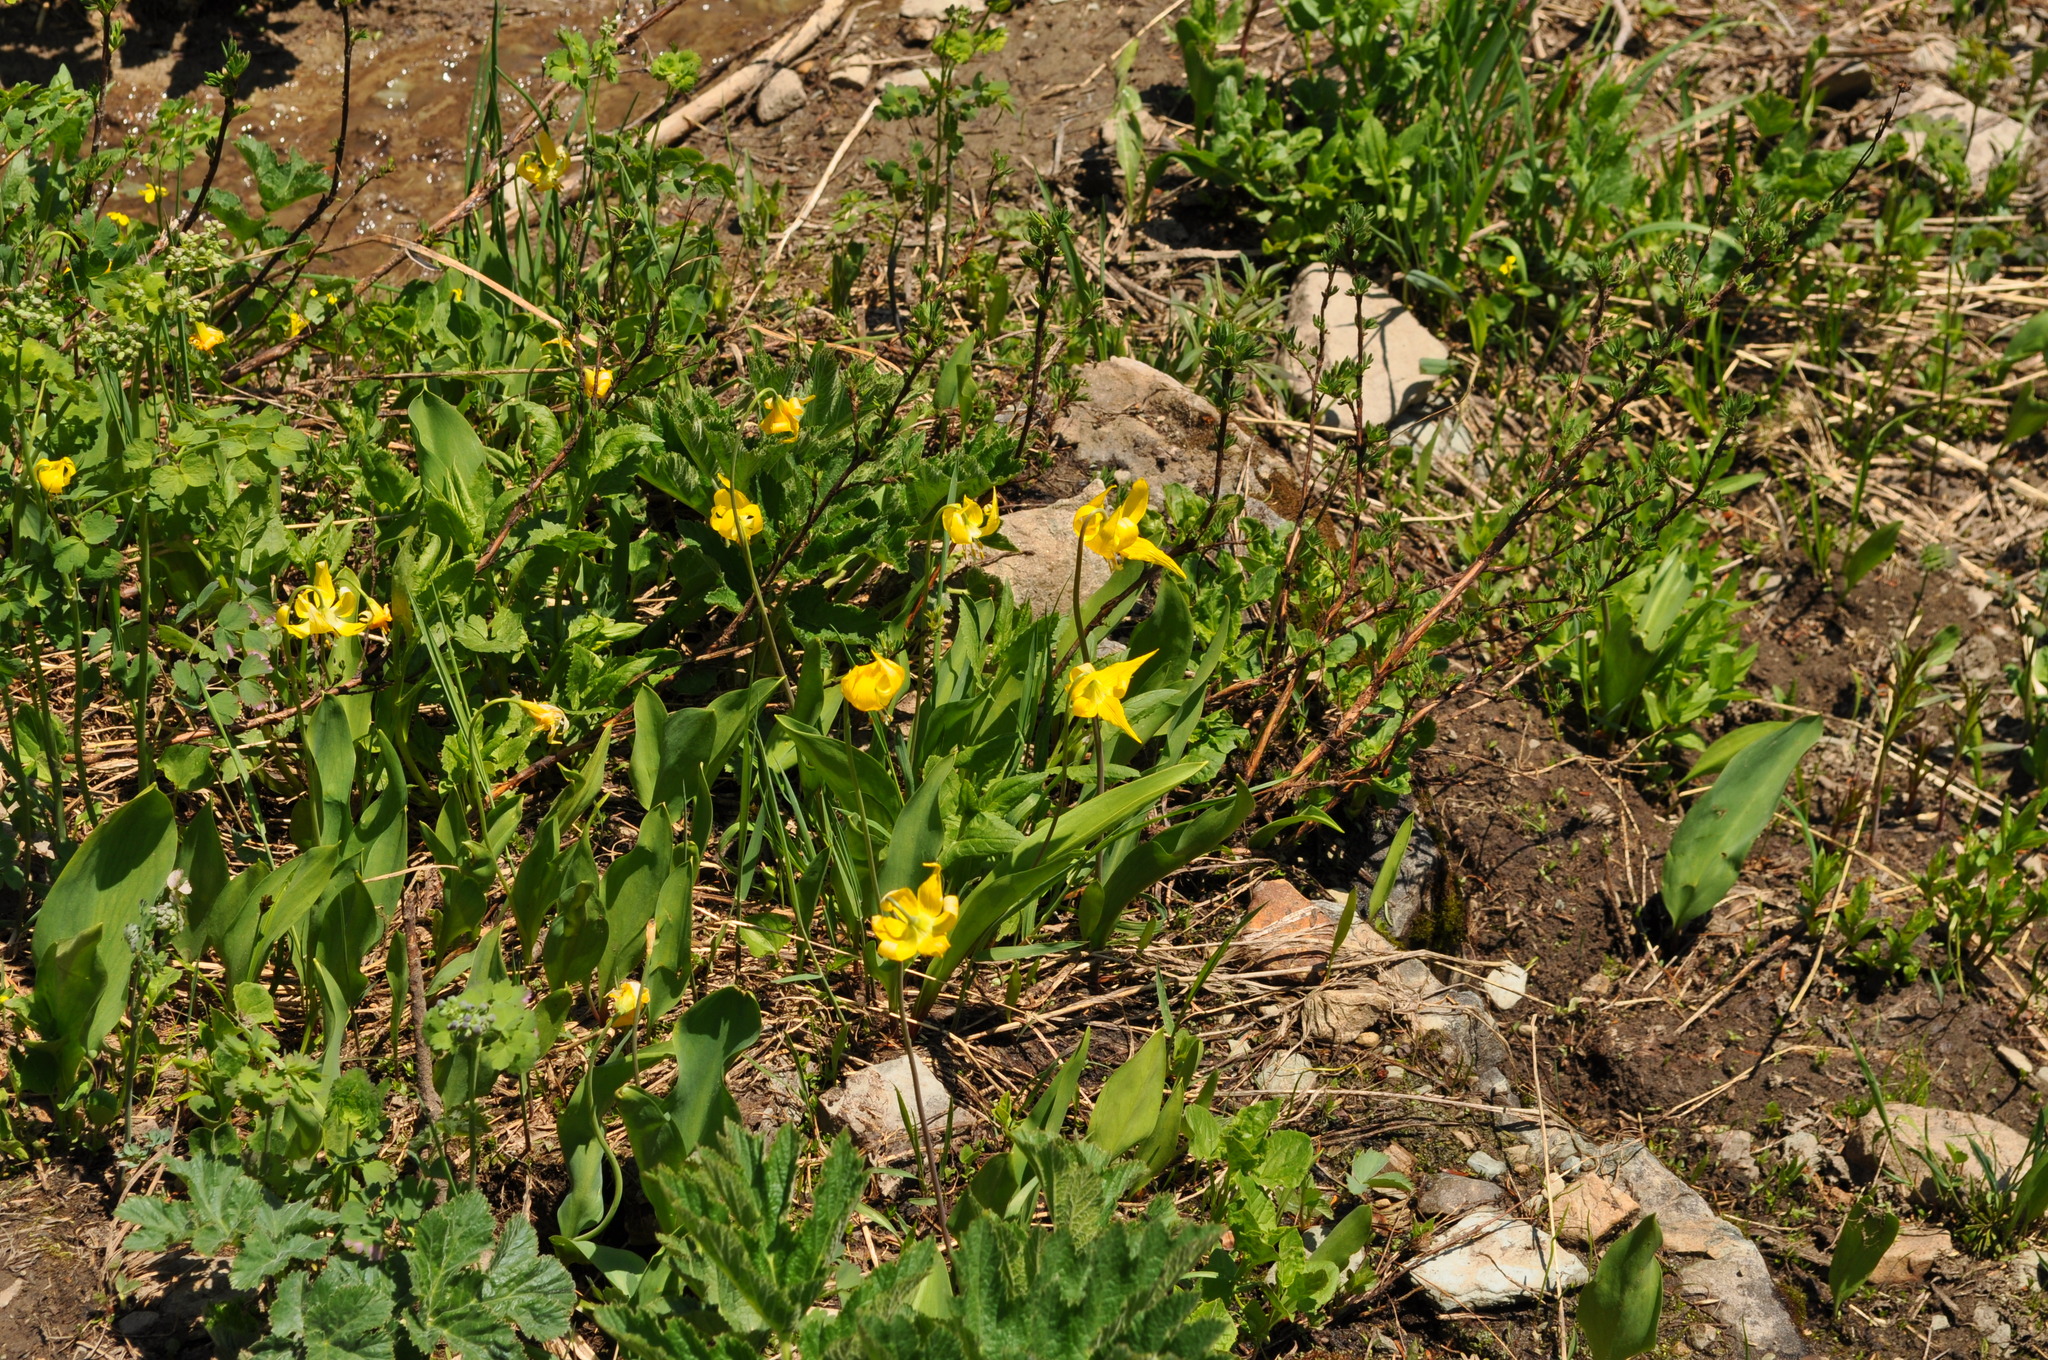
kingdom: Plantae
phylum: Tracheophyta
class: Liliopsida
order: Liliales
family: Liliaceae
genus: Erythronium
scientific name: Erythronium grandiflorum
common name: Avalanche-lily
